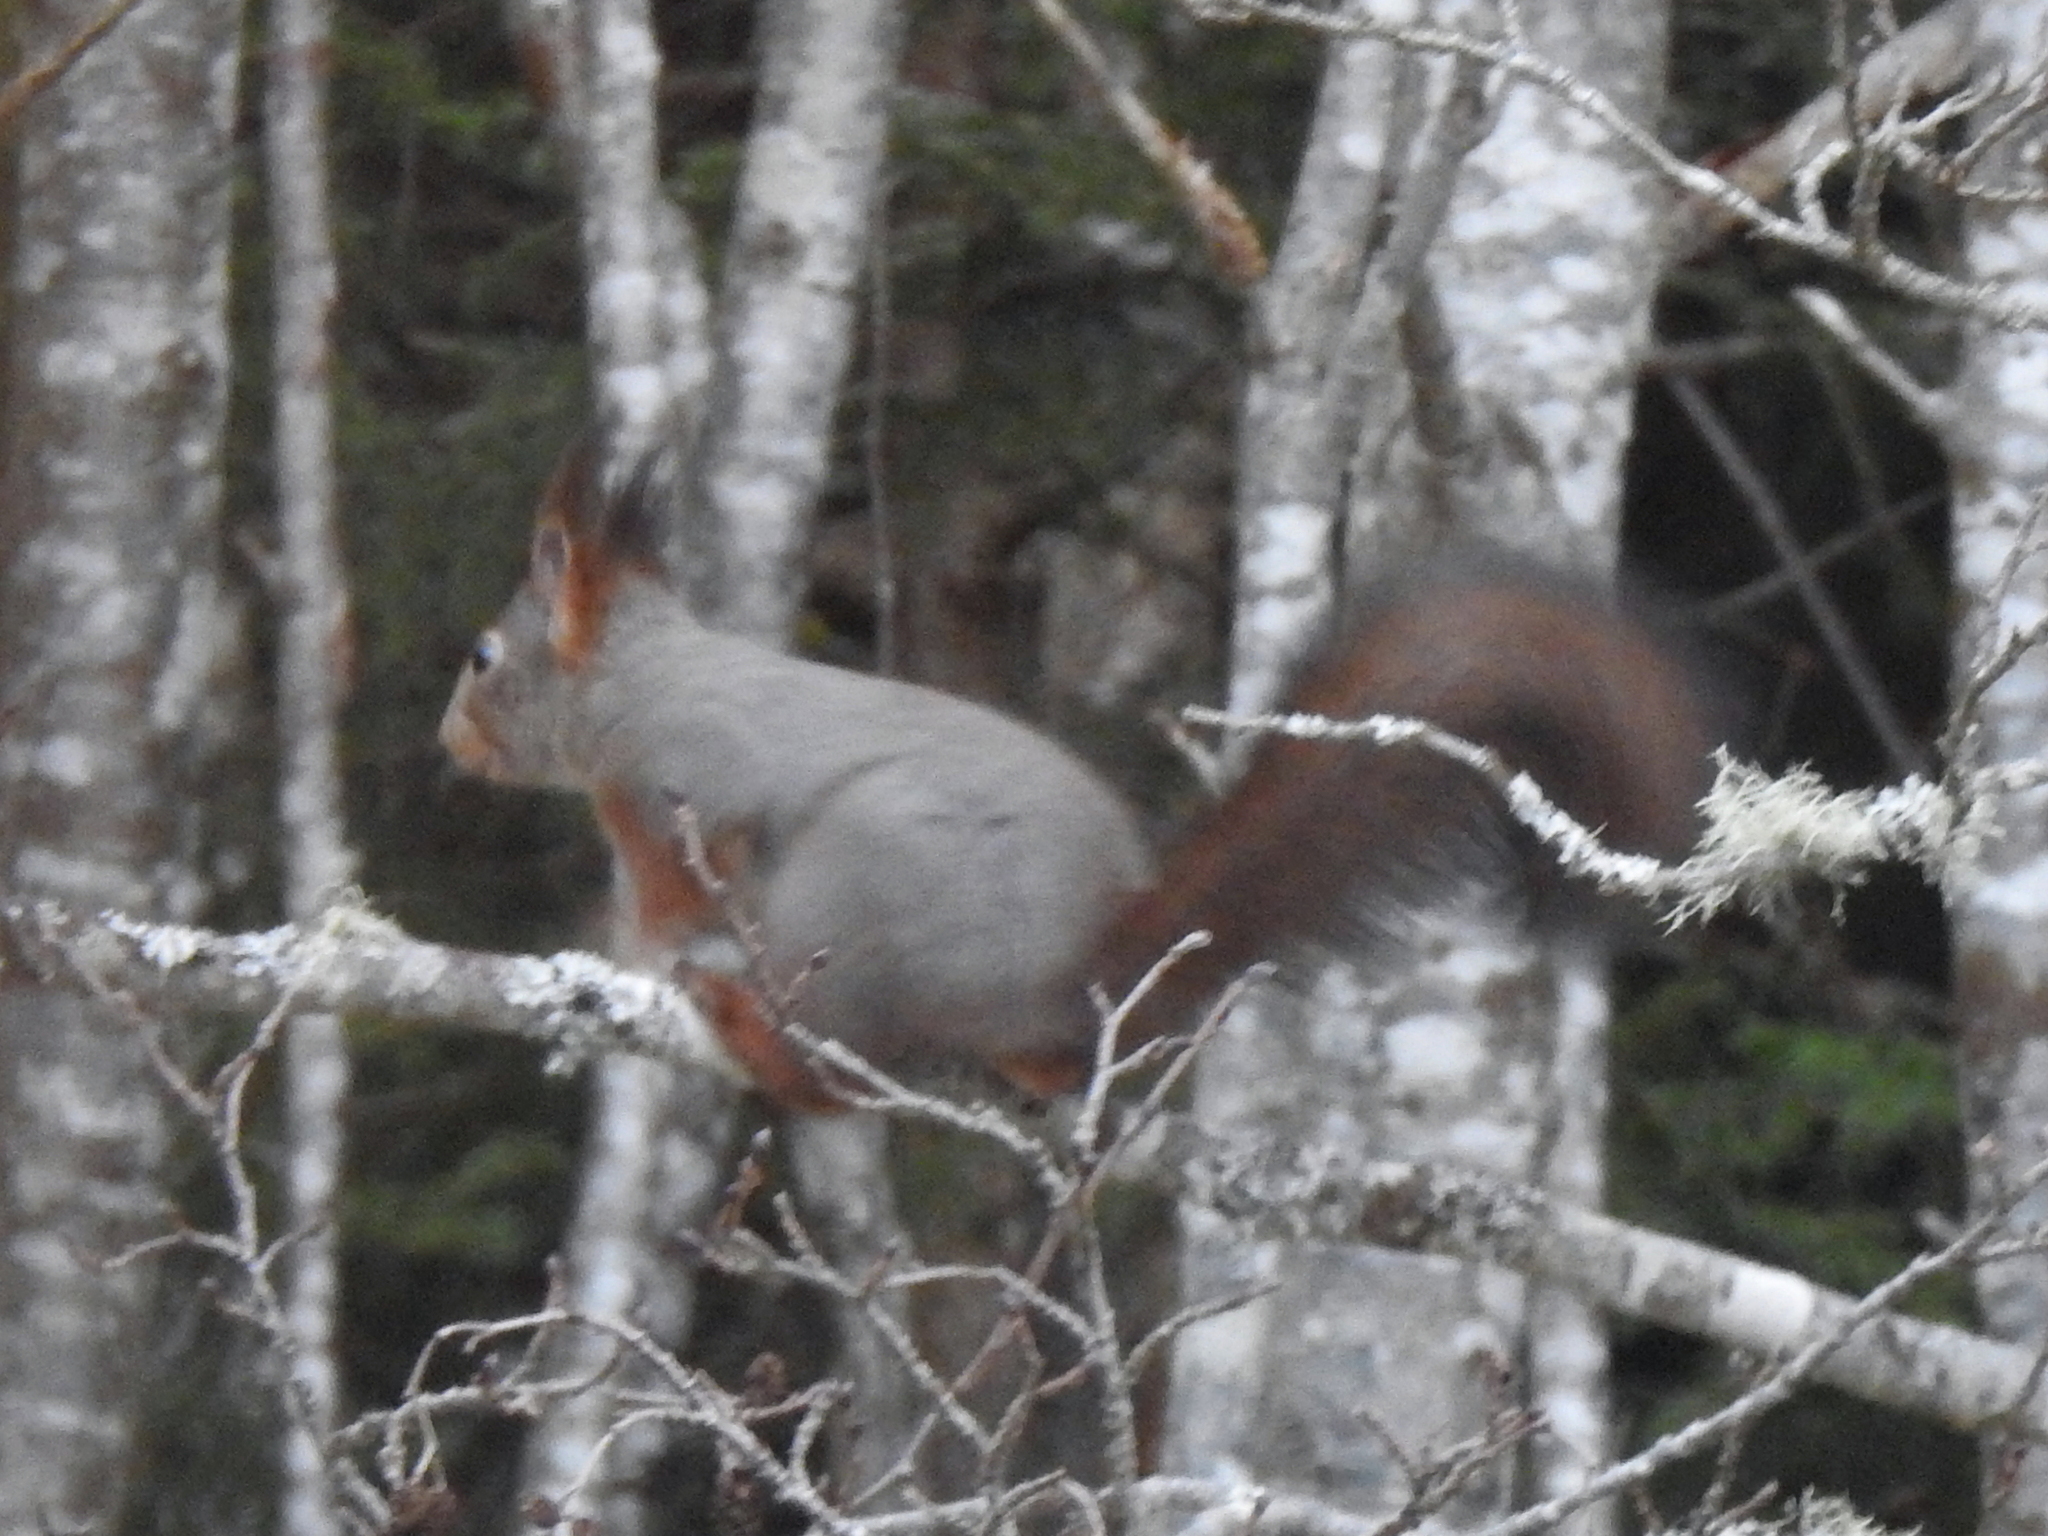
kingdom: Animalia
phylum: Chordata
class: Mammalia
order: Rodentia
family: Sciuridae
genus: Sciurus
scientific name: Sciurus vulgaris
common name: Eurasian red squirrel
